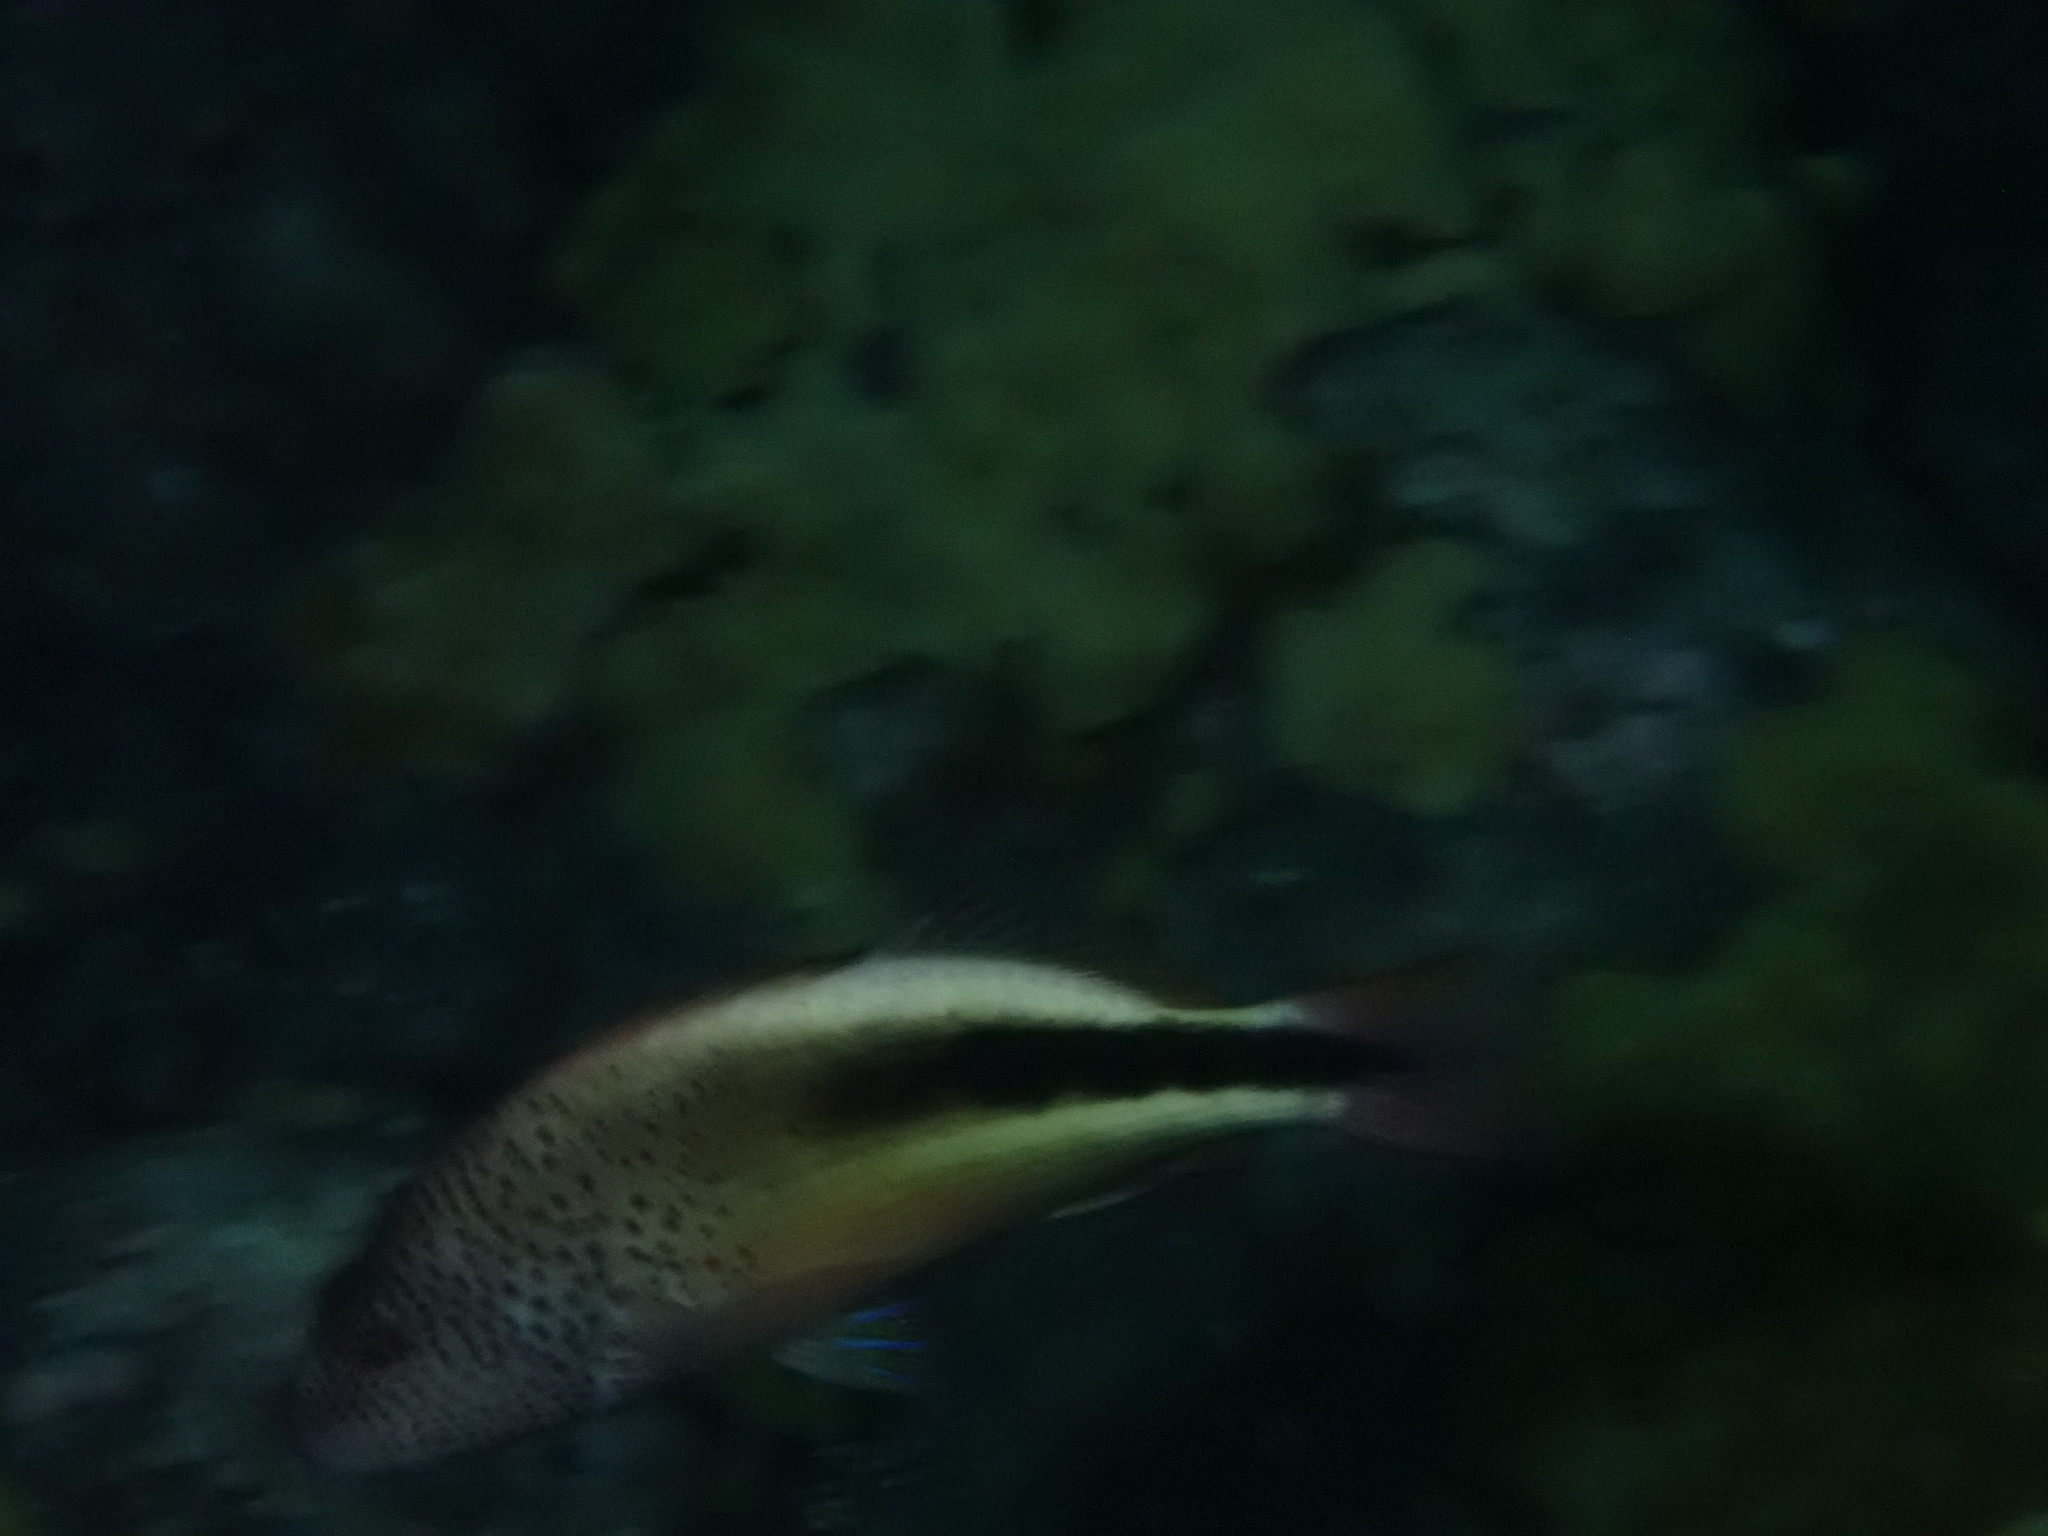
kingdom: Animalia
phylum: Chordata
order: Perciformes
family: Cirrhitidae
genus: Paracirrhites
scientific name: Paracirrhites forsteri
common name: Freckled hawkfish
